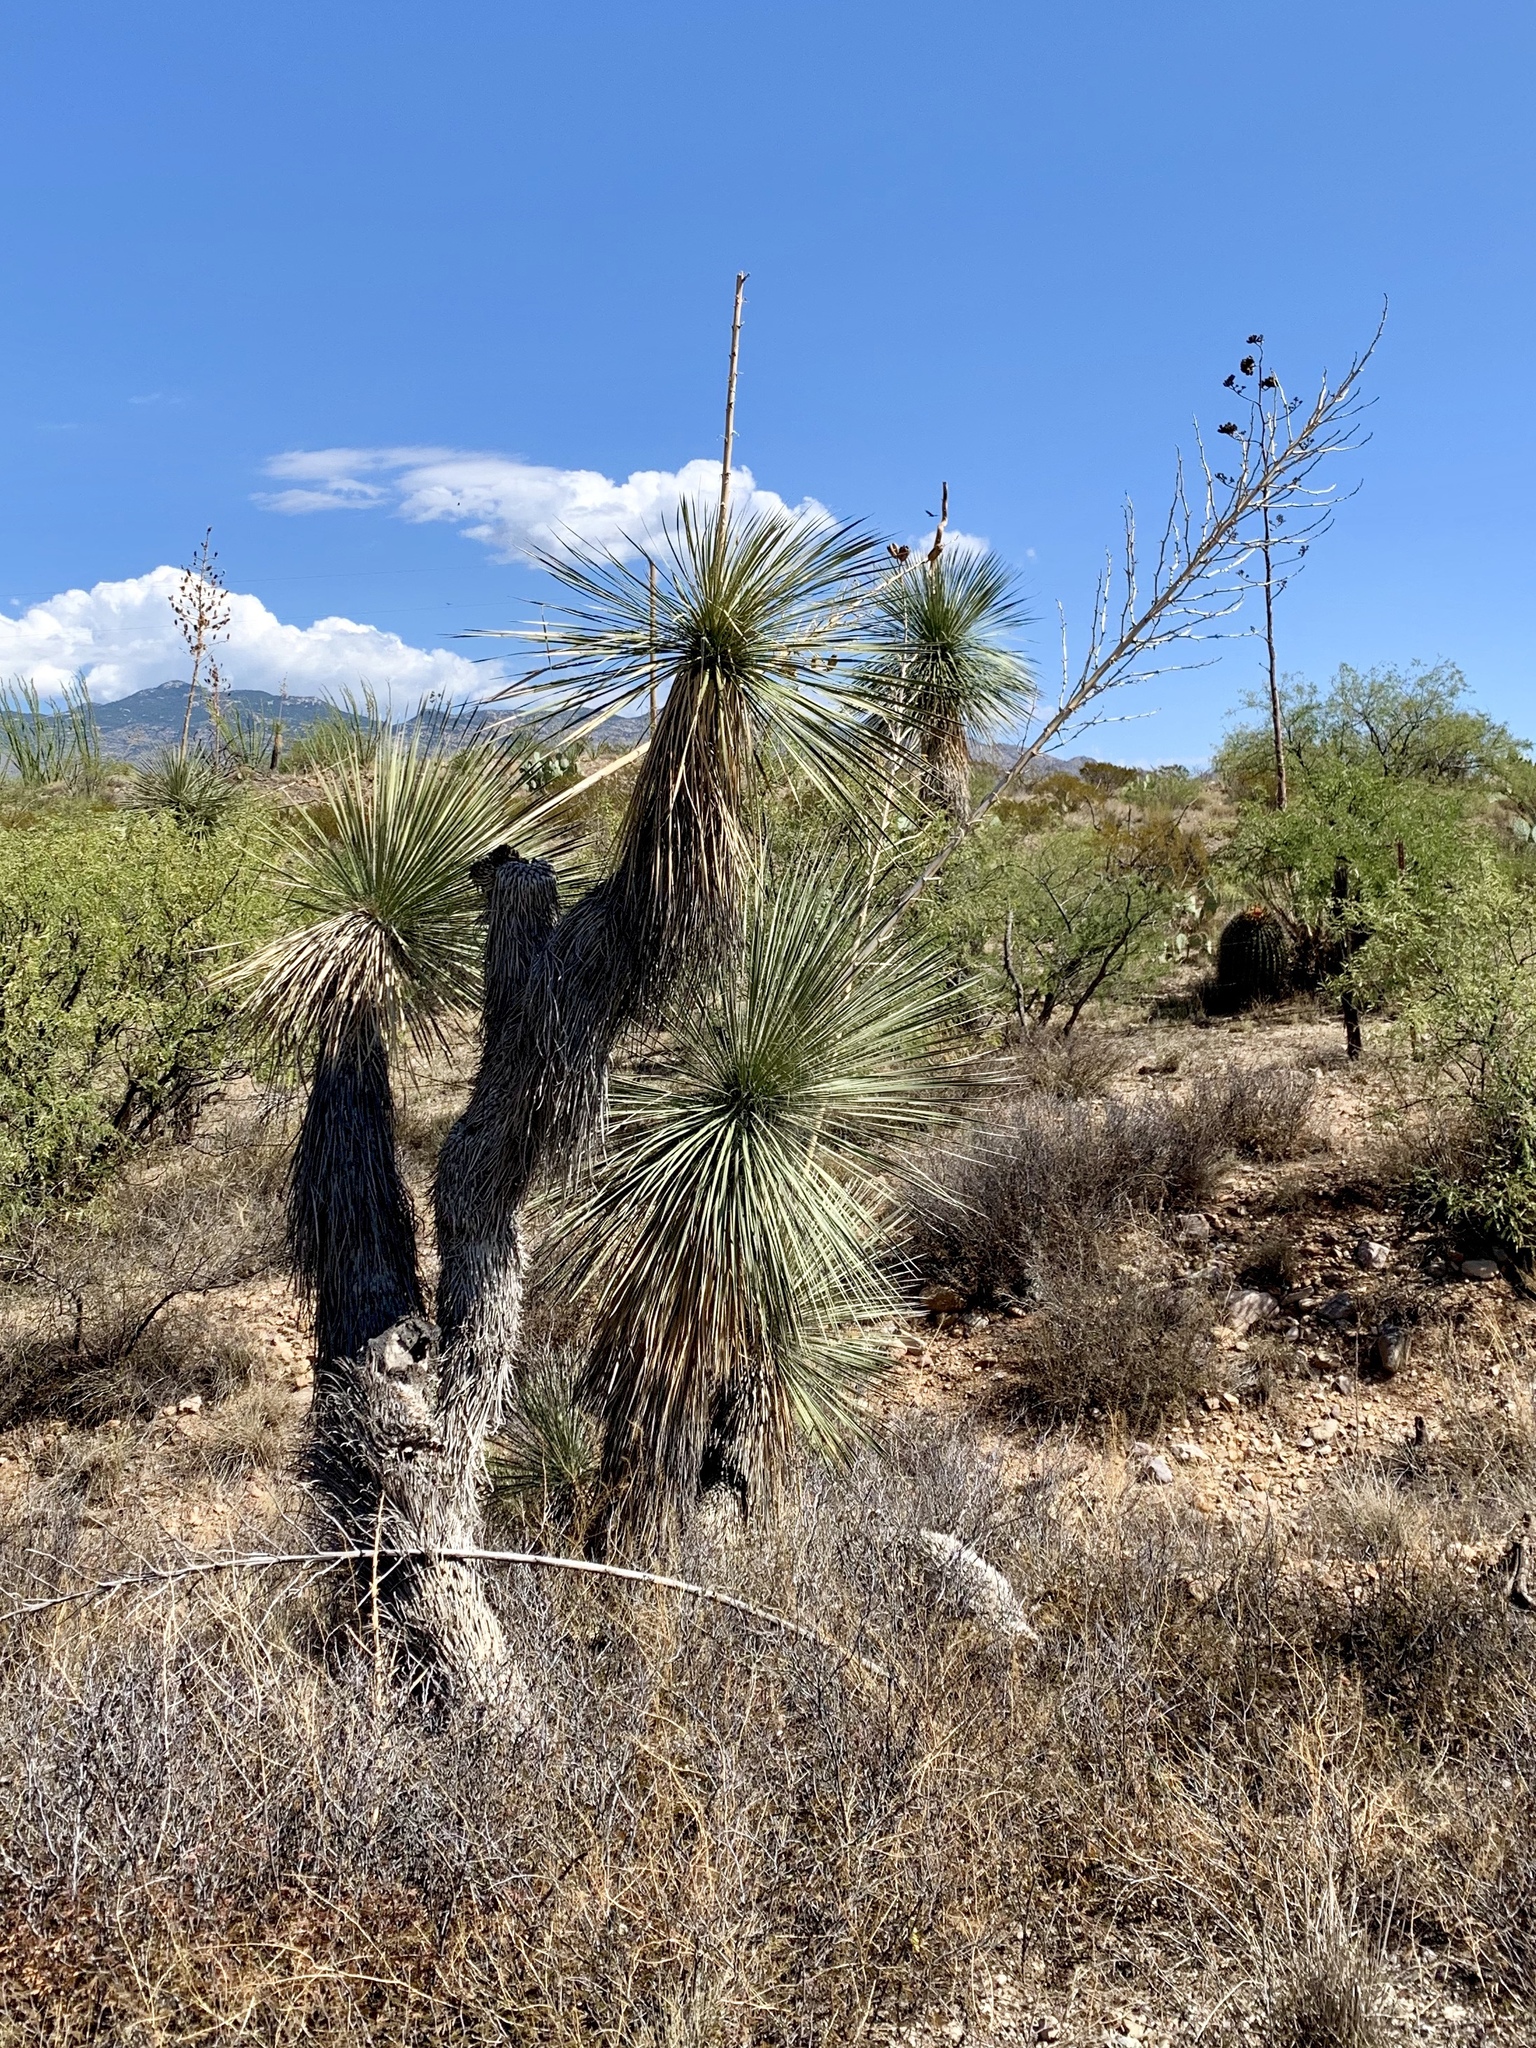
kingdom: Plantae
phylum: Tracheophyta
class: Liliopsida
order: Asparagales
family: Asparagaceae
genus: Yucca
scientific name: Yucca elata
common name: Palmella
